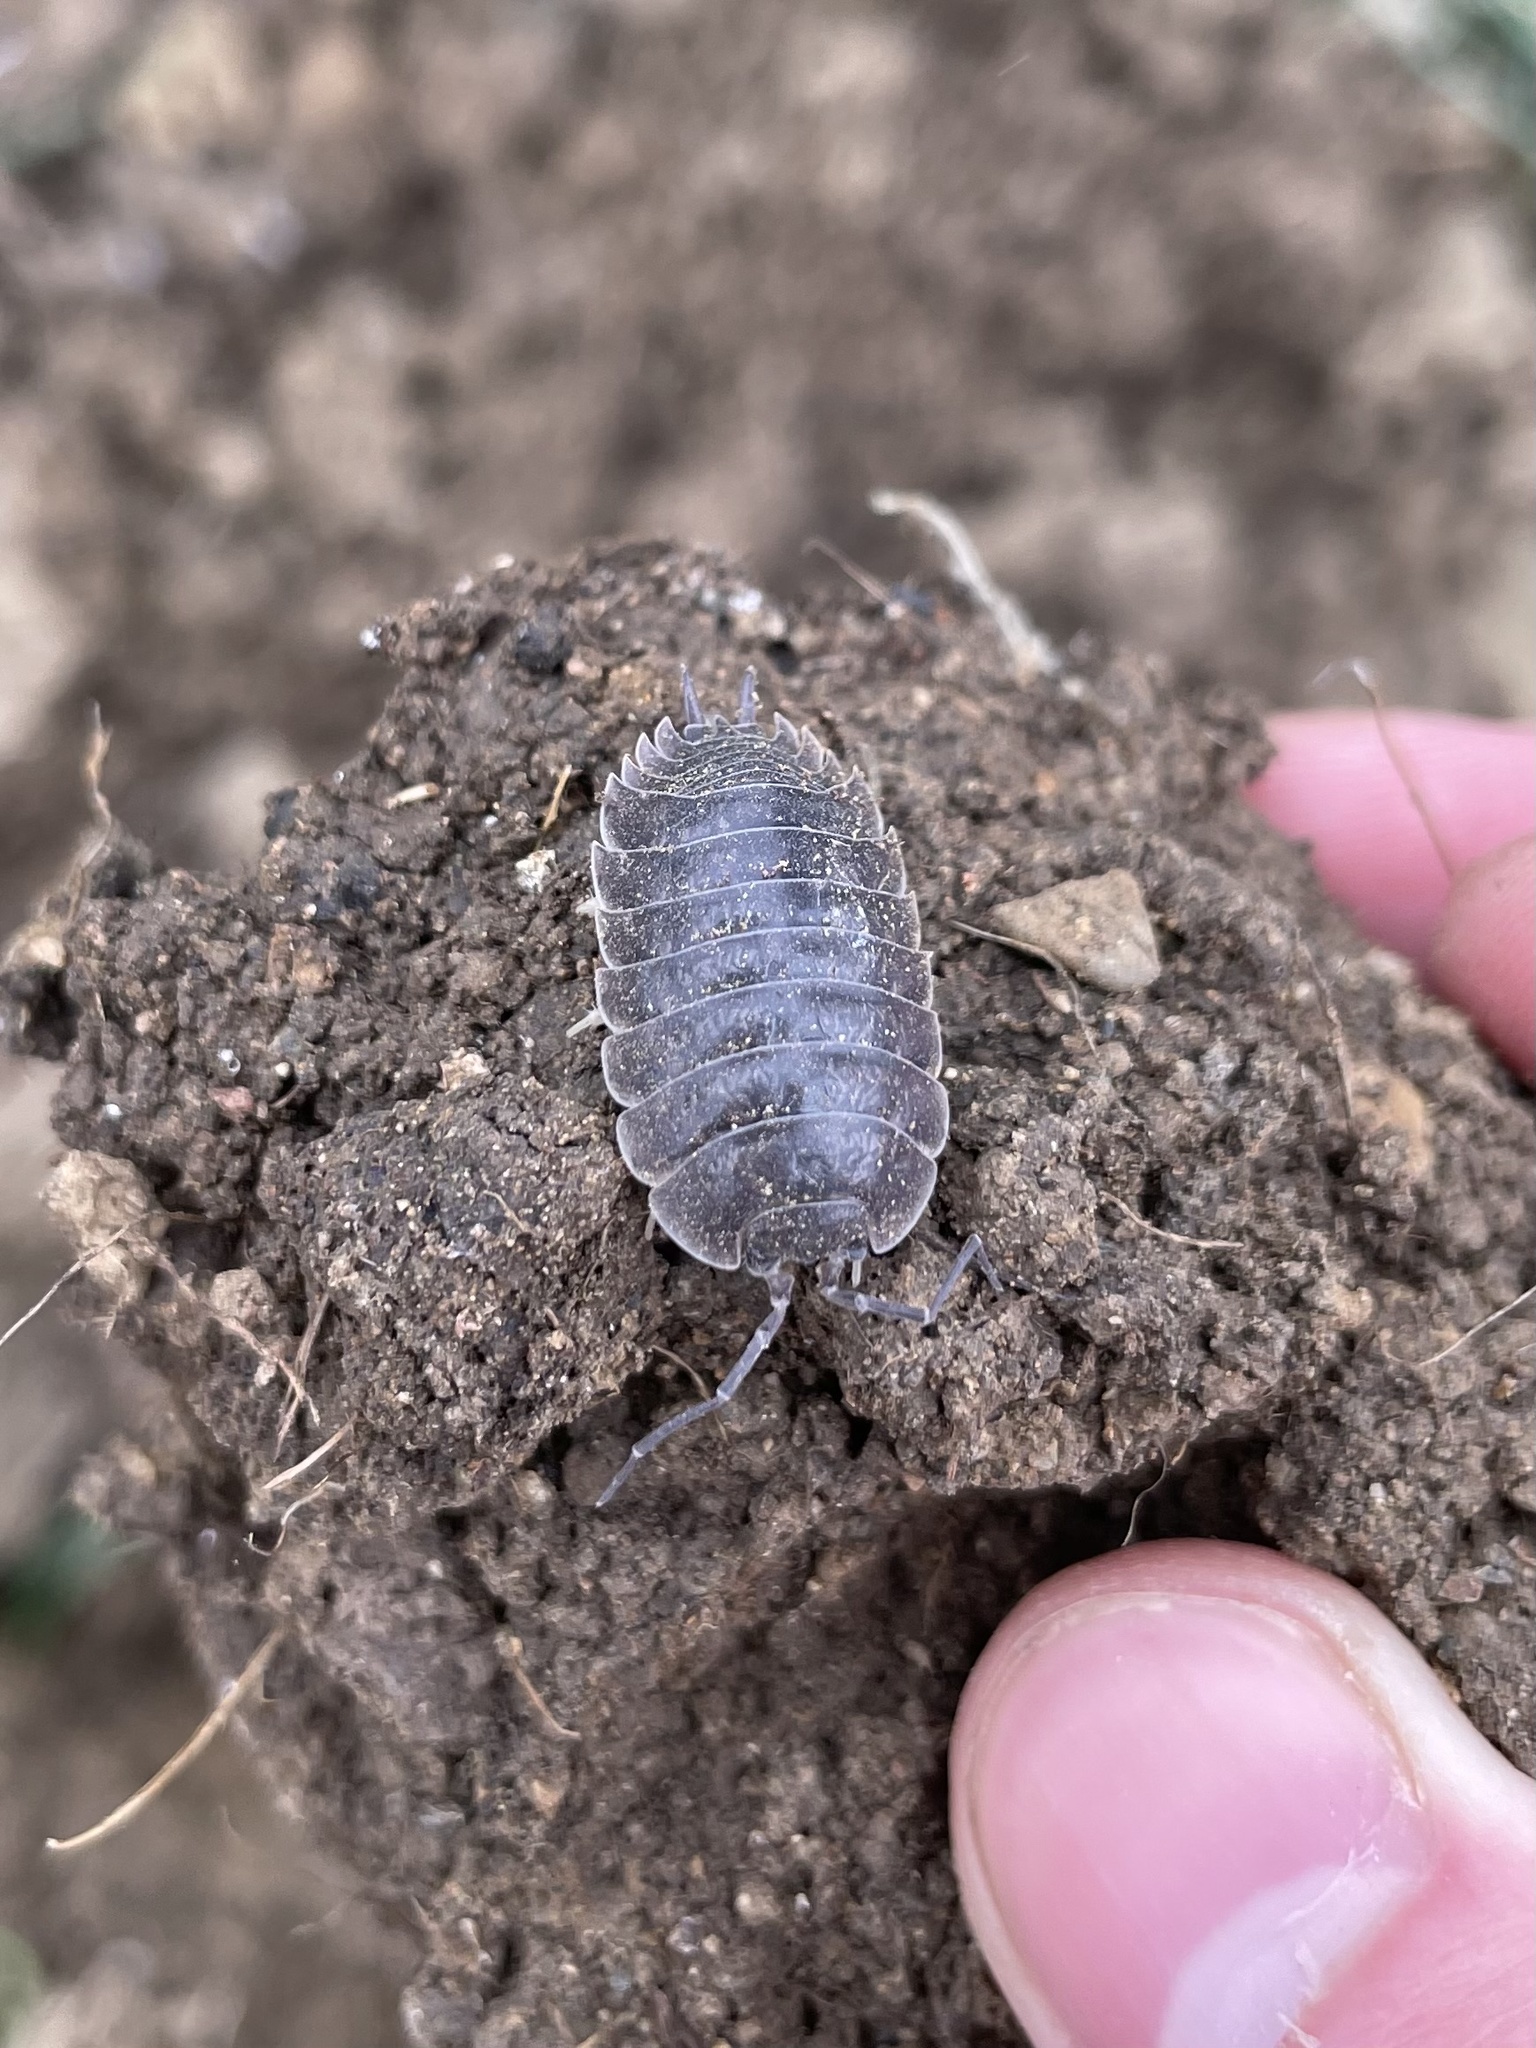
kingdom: Animalia
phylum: Arthropoda
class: Malacostraca
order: Isopoda
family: Porcellionidae
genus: Porcellio
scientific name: Porcellio laevis
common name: Swift woodlouse
